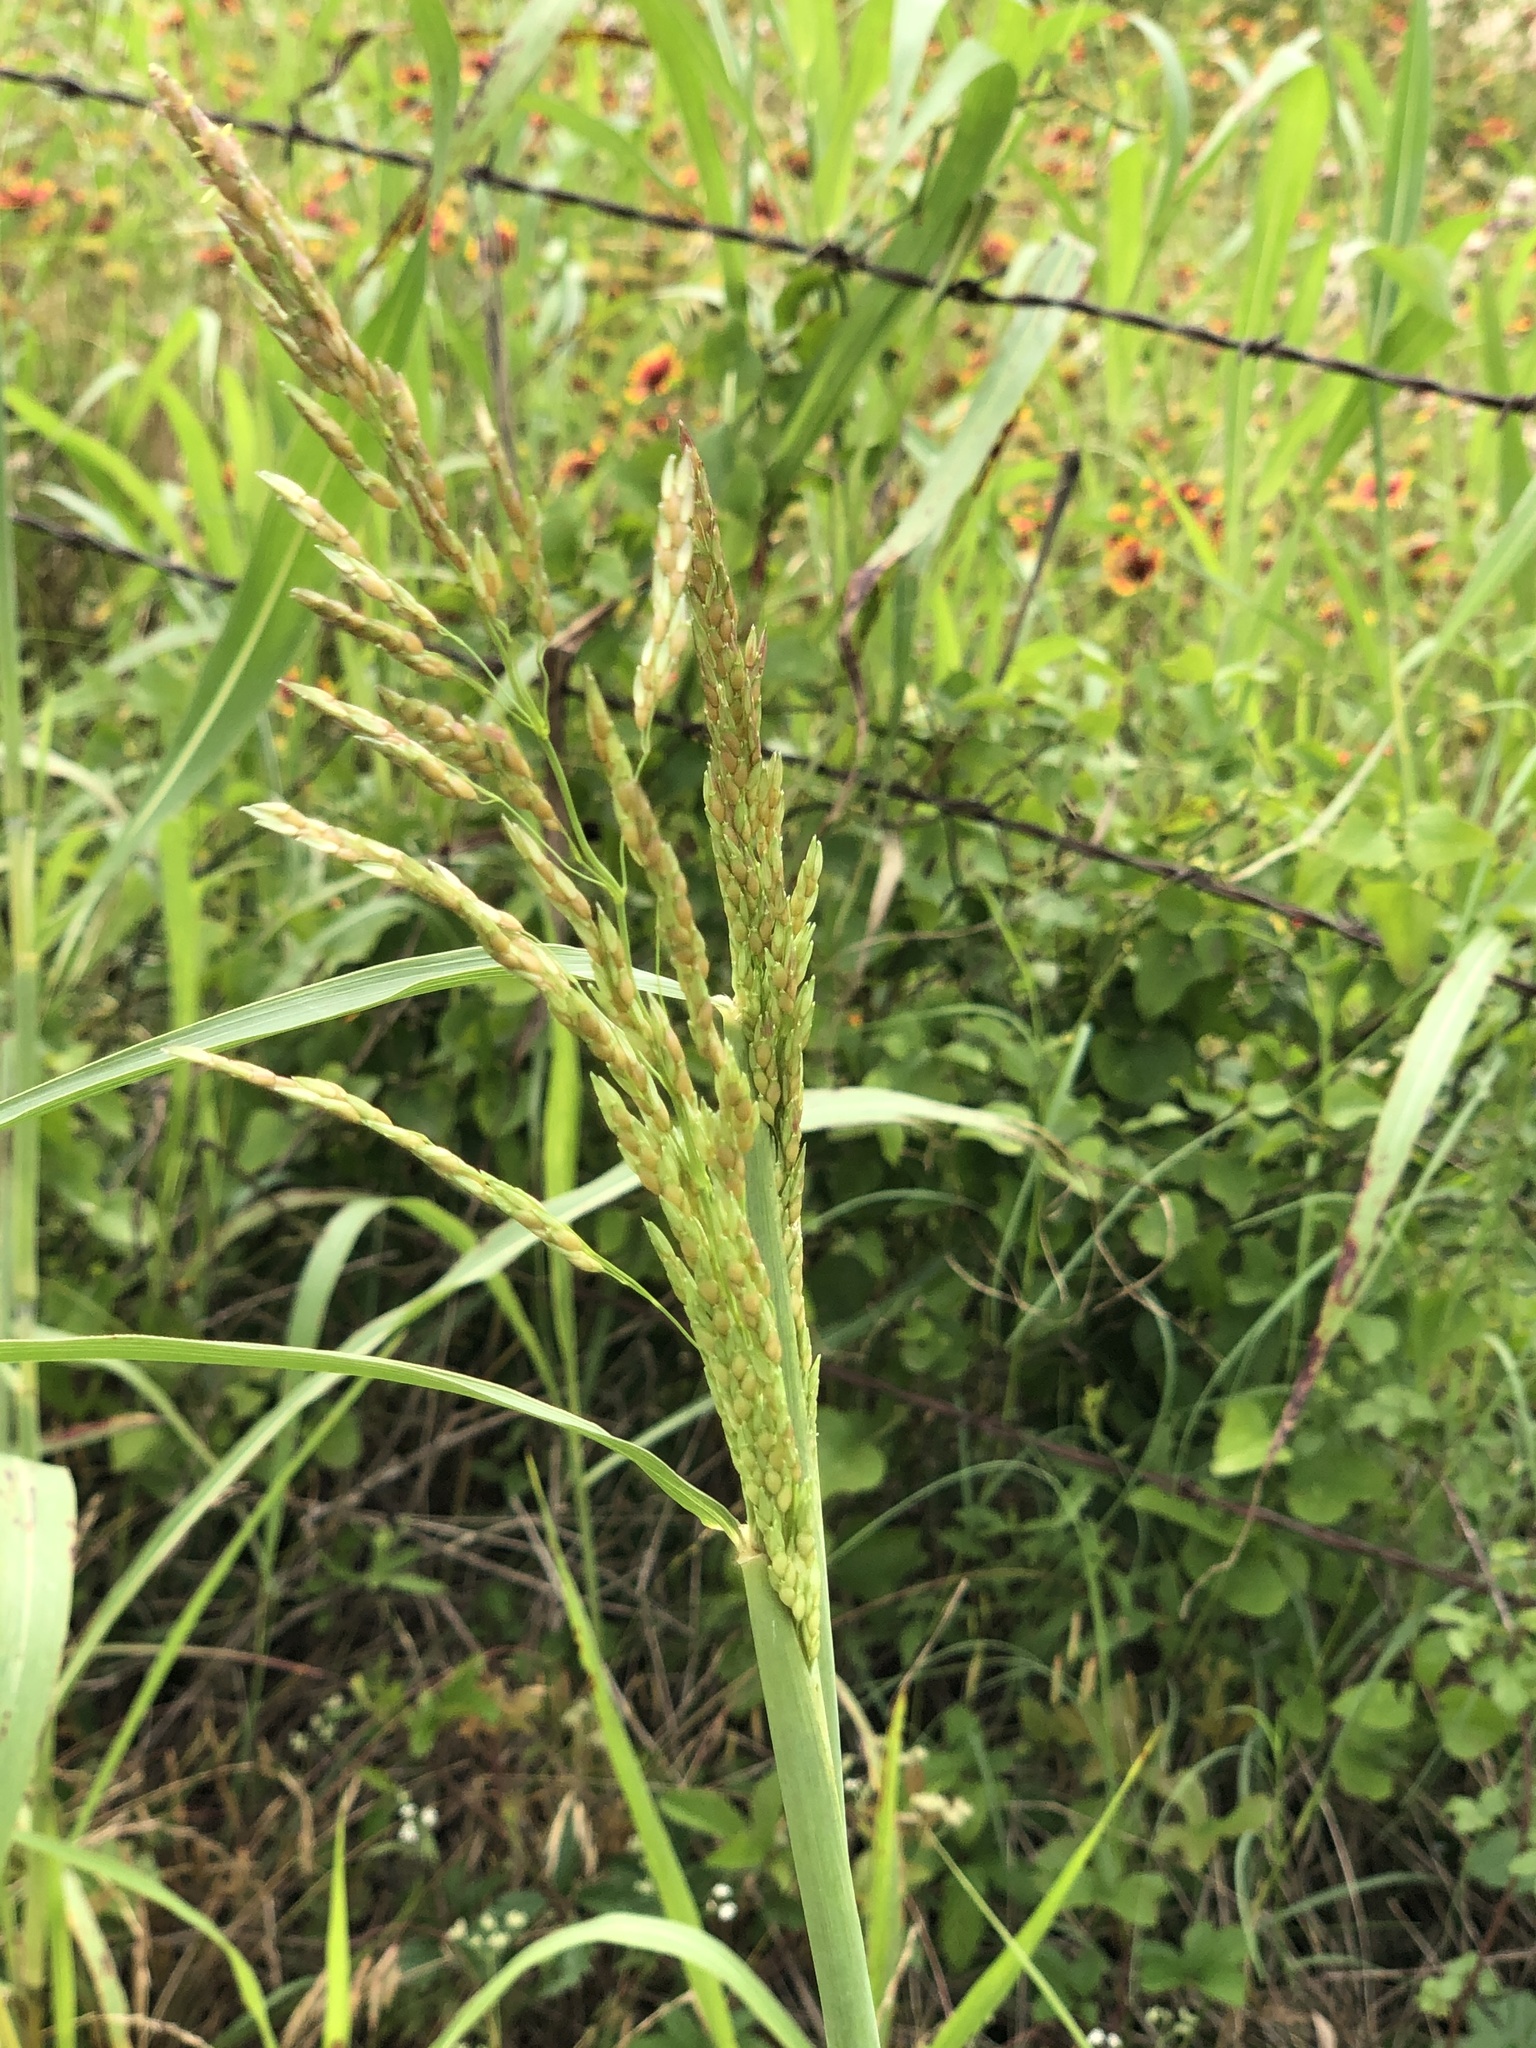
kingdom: Plantae
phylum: Tracheophyta
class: Liliopsida
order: Poales
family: Poaceae
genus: Sorghum
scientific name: Sorghum halepense
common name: Johnson-grass
